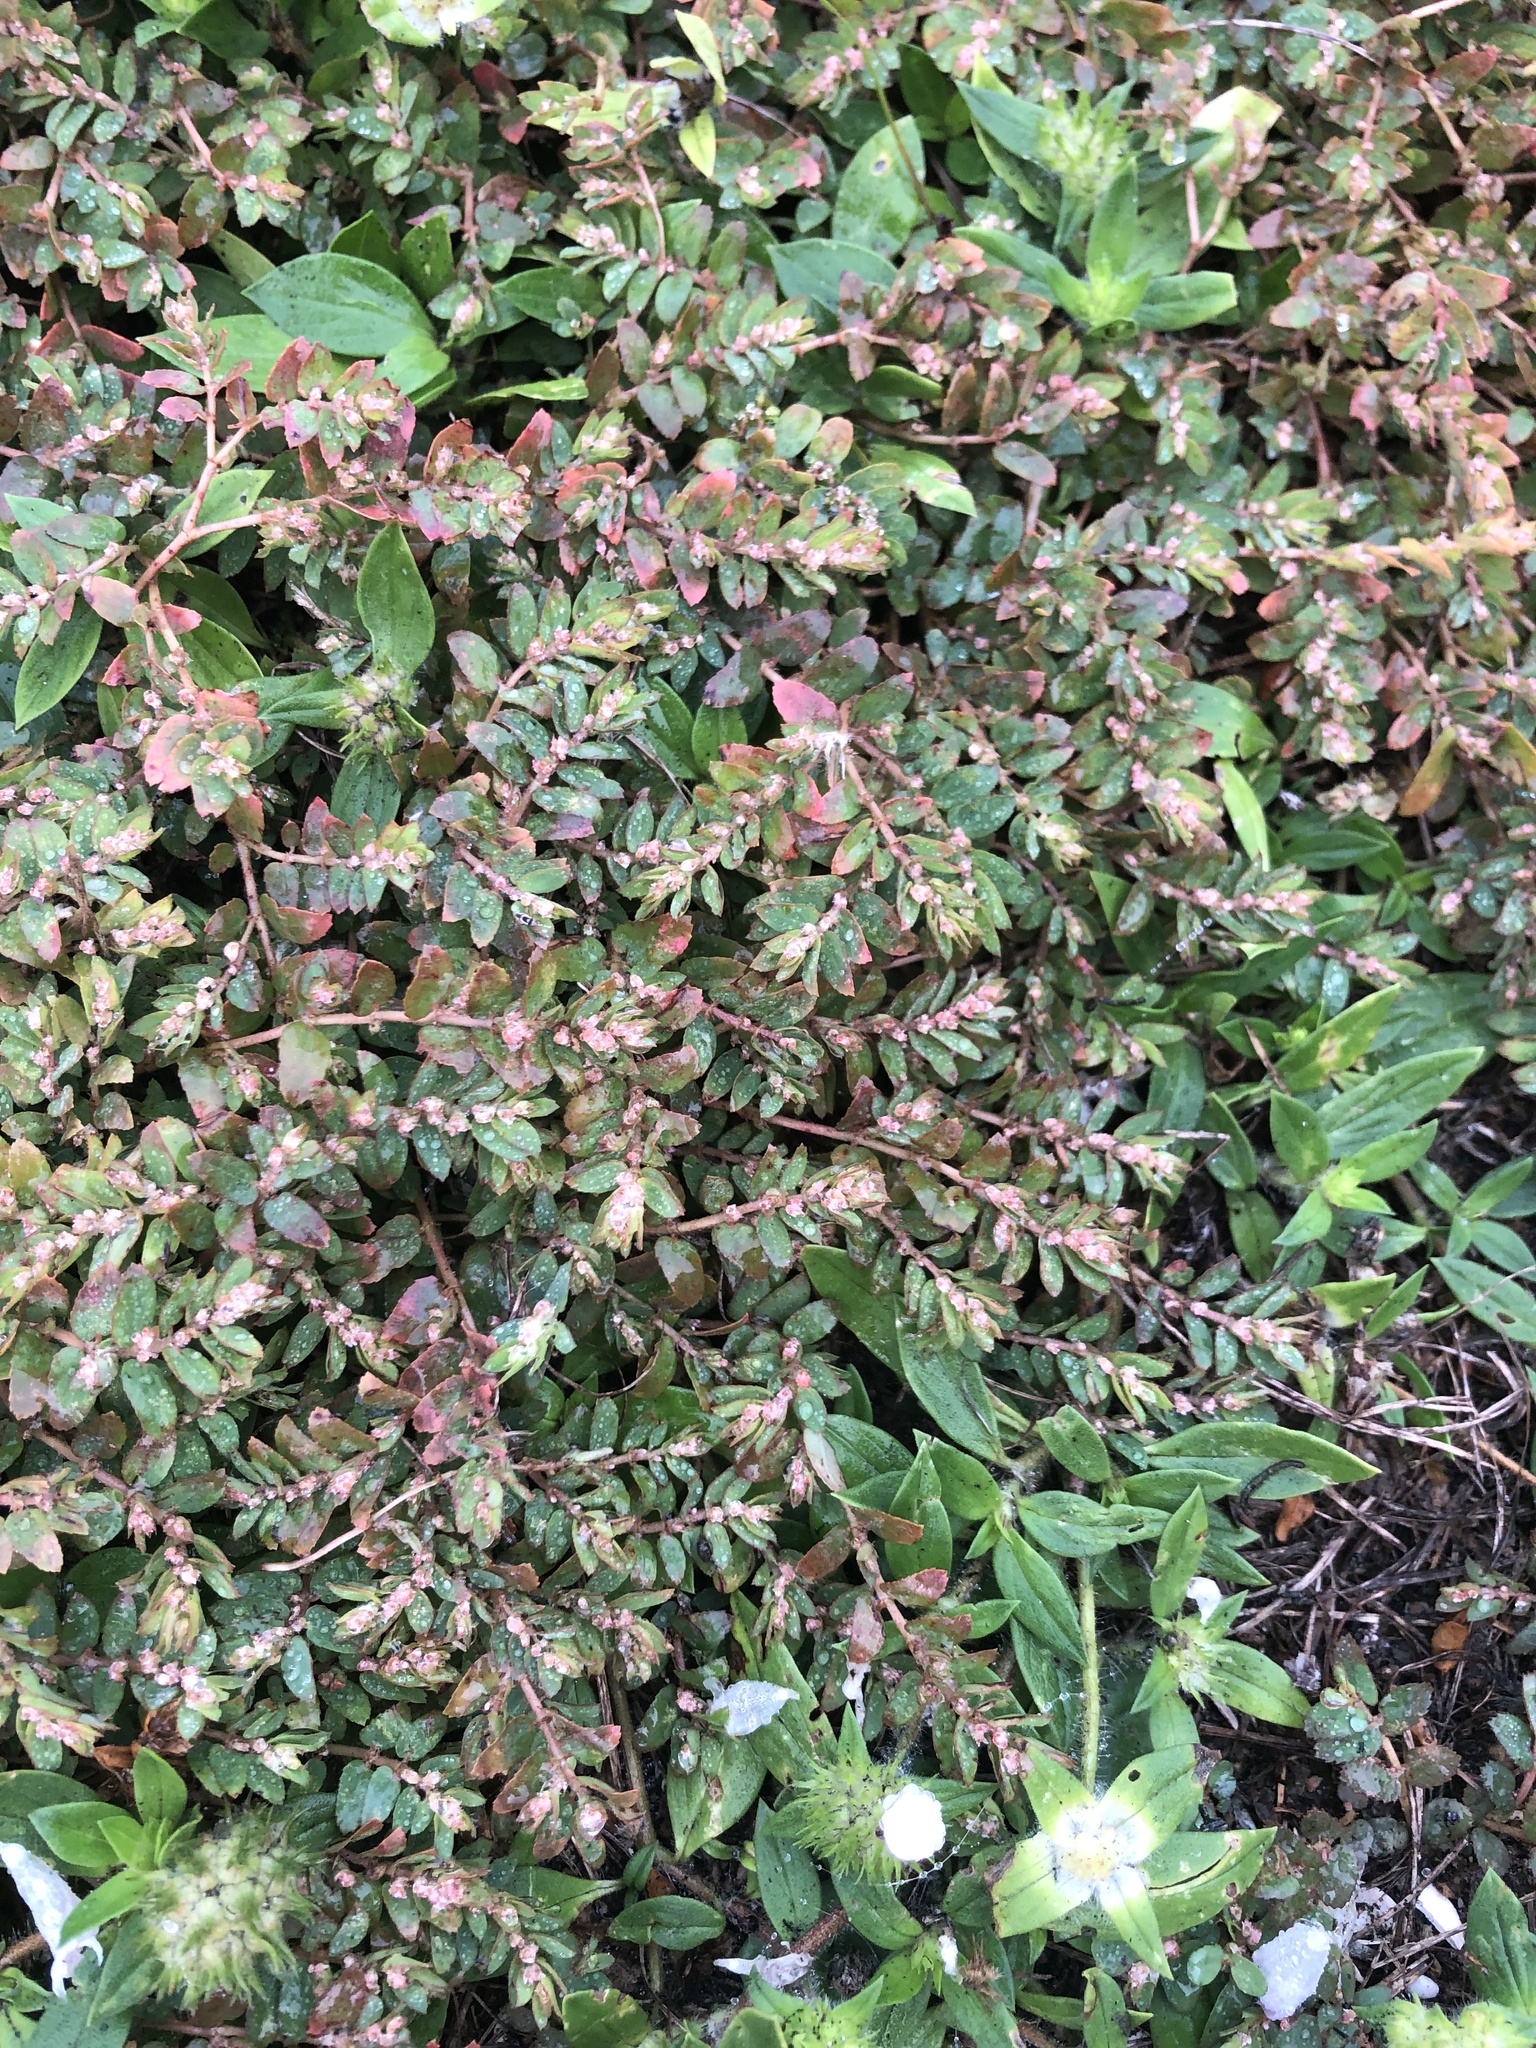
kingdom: Plantae
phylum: Tracheophyta
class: Magnoliopsida
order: Malpighiales
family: Euphorbiaceae
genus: Euphorbia
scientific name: Euphorbia thymifolia
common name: Gulf sandmat
